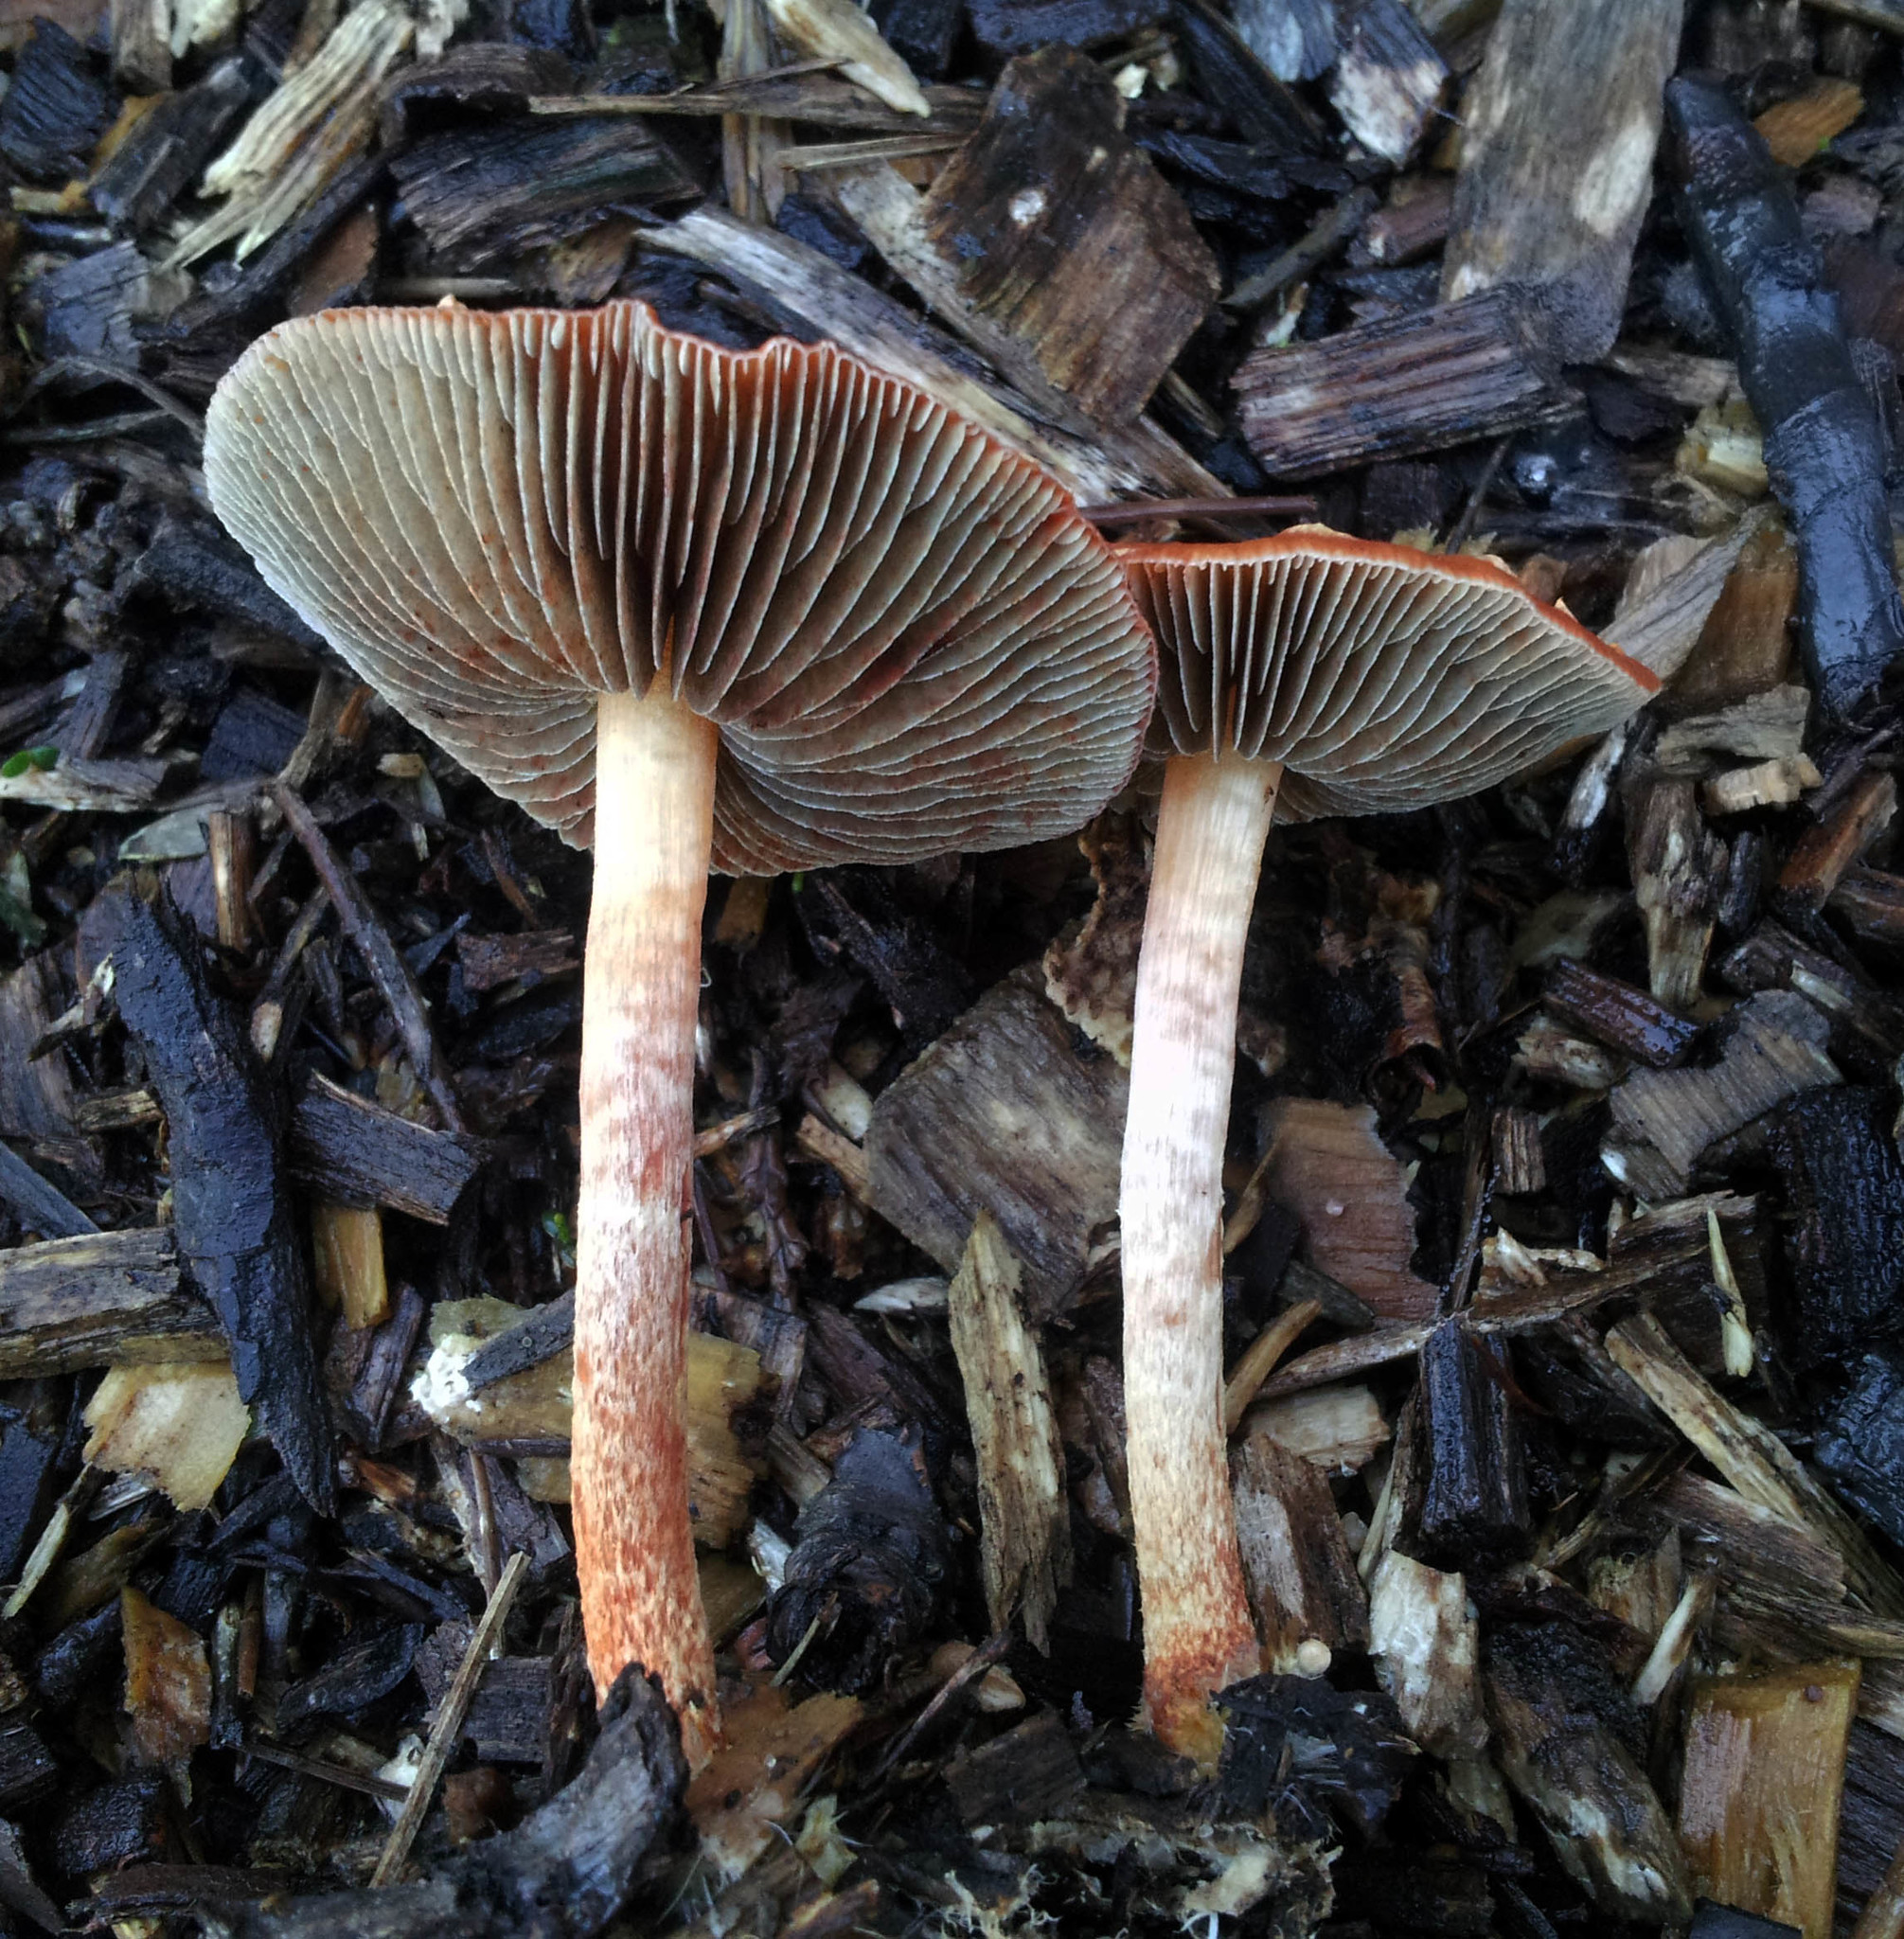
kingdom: Fungi
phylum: Basidiomycota
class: Agaricomycetes
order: Agaricales
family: Strophariaceae
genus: Leratiomyces
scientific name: Leratiomyces ceres
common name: Redlead roundhead
